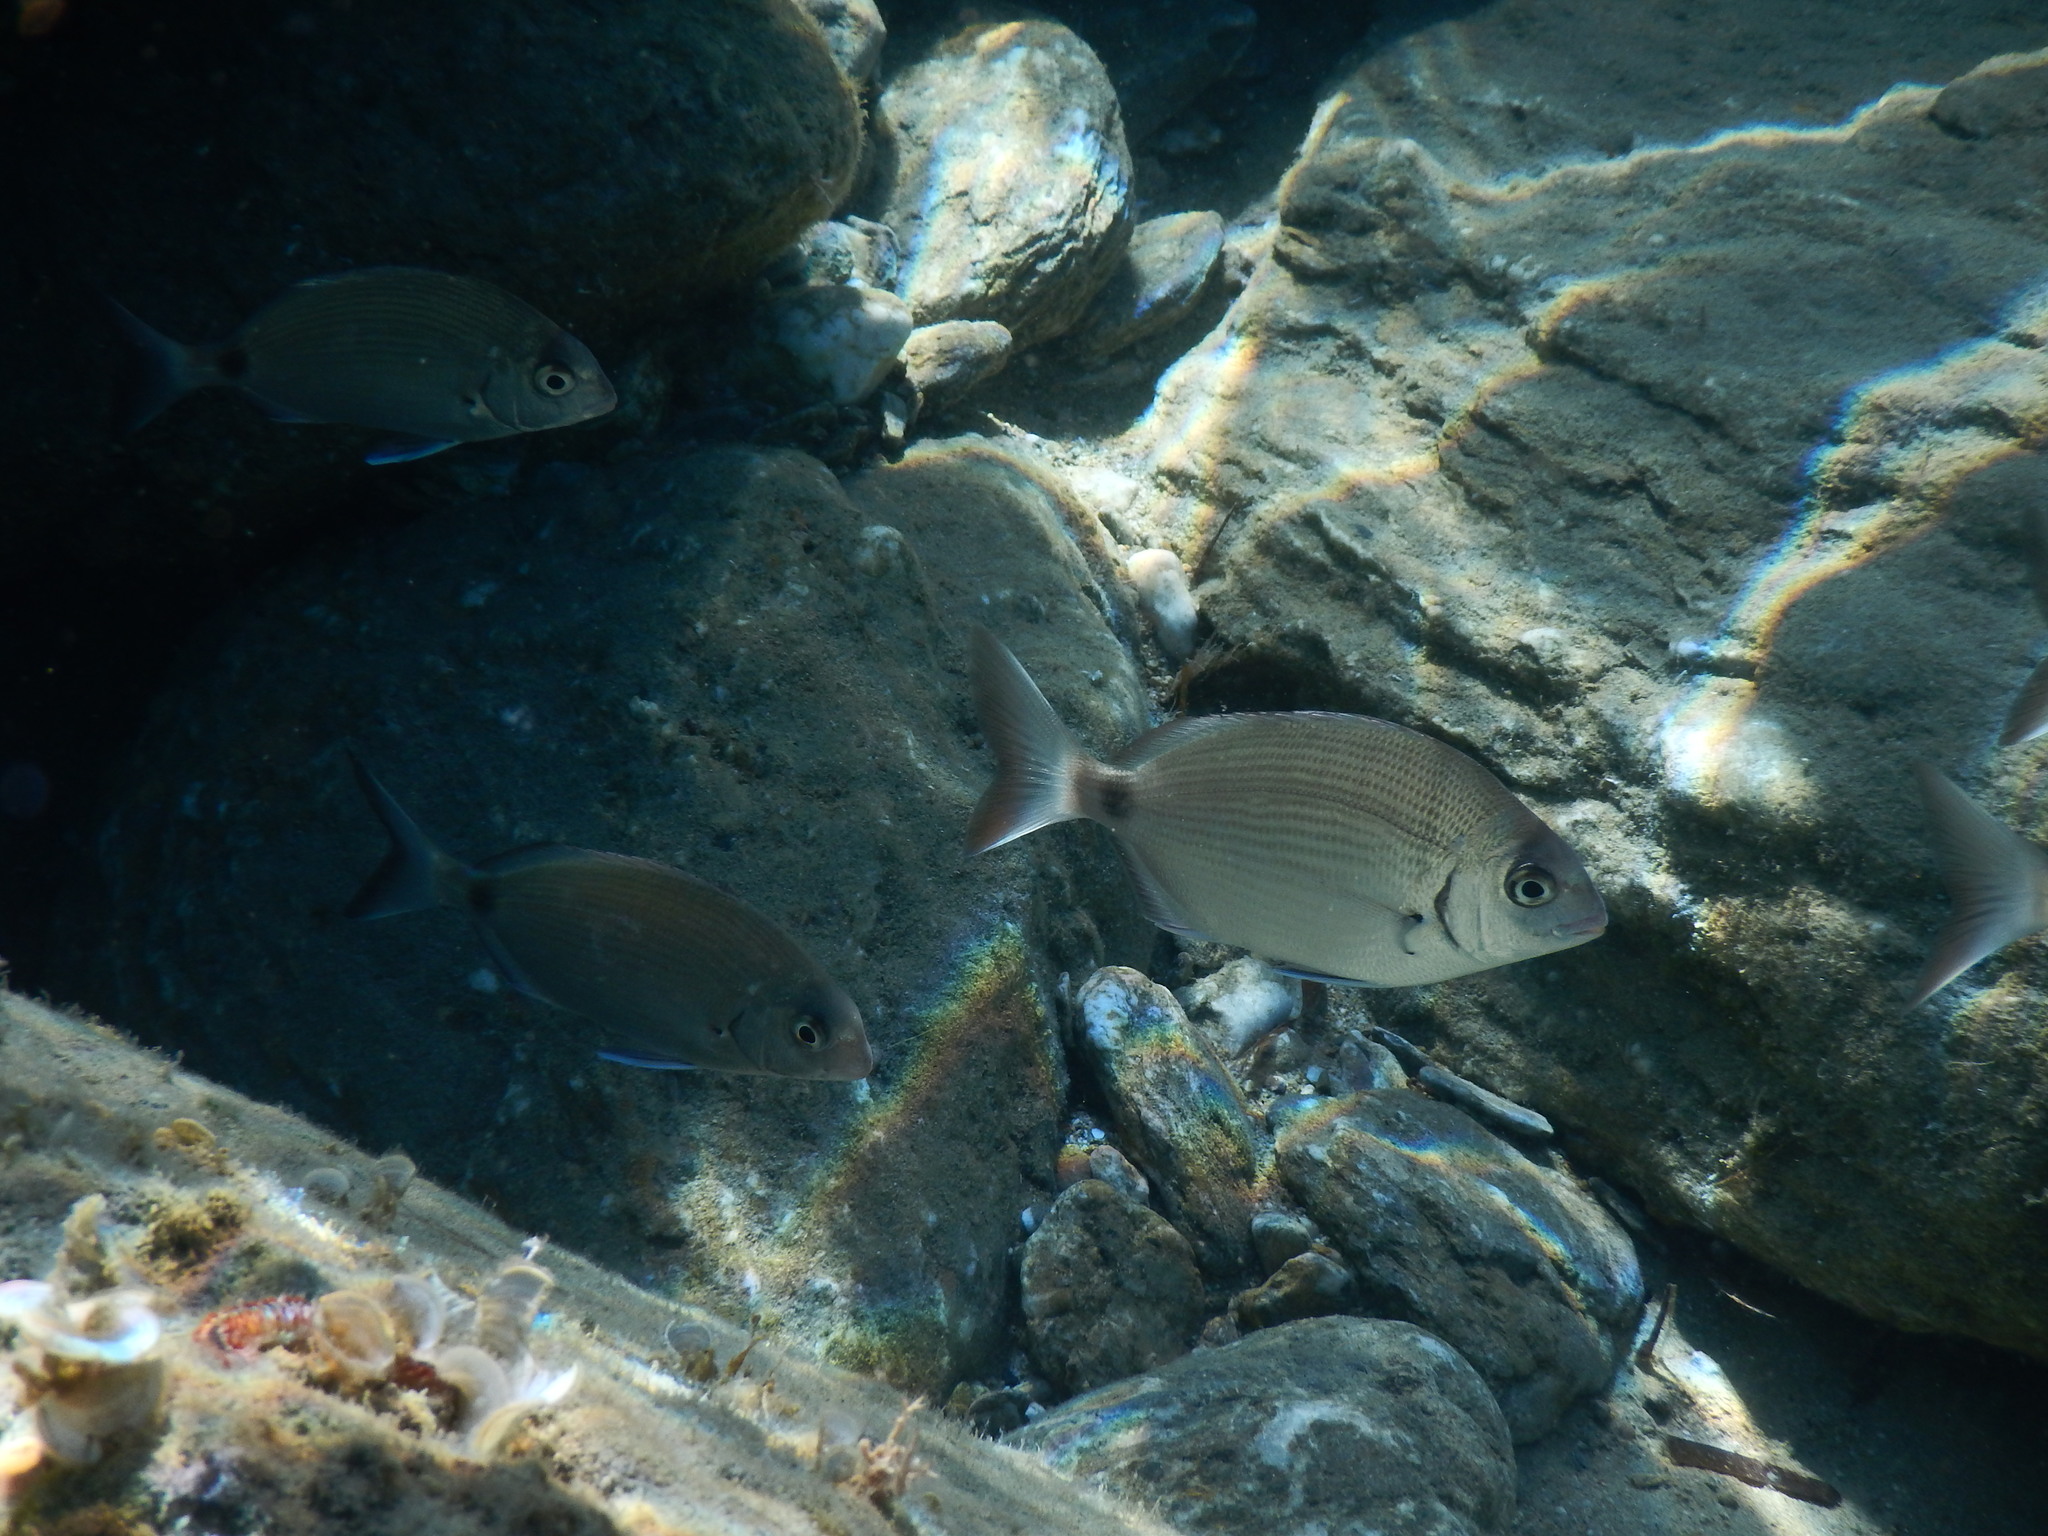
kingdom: Animalia
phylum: Chordata
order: Perciformes
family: Sparidae
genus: Diplodus
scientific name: Diplodus sargus
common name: White seabream
